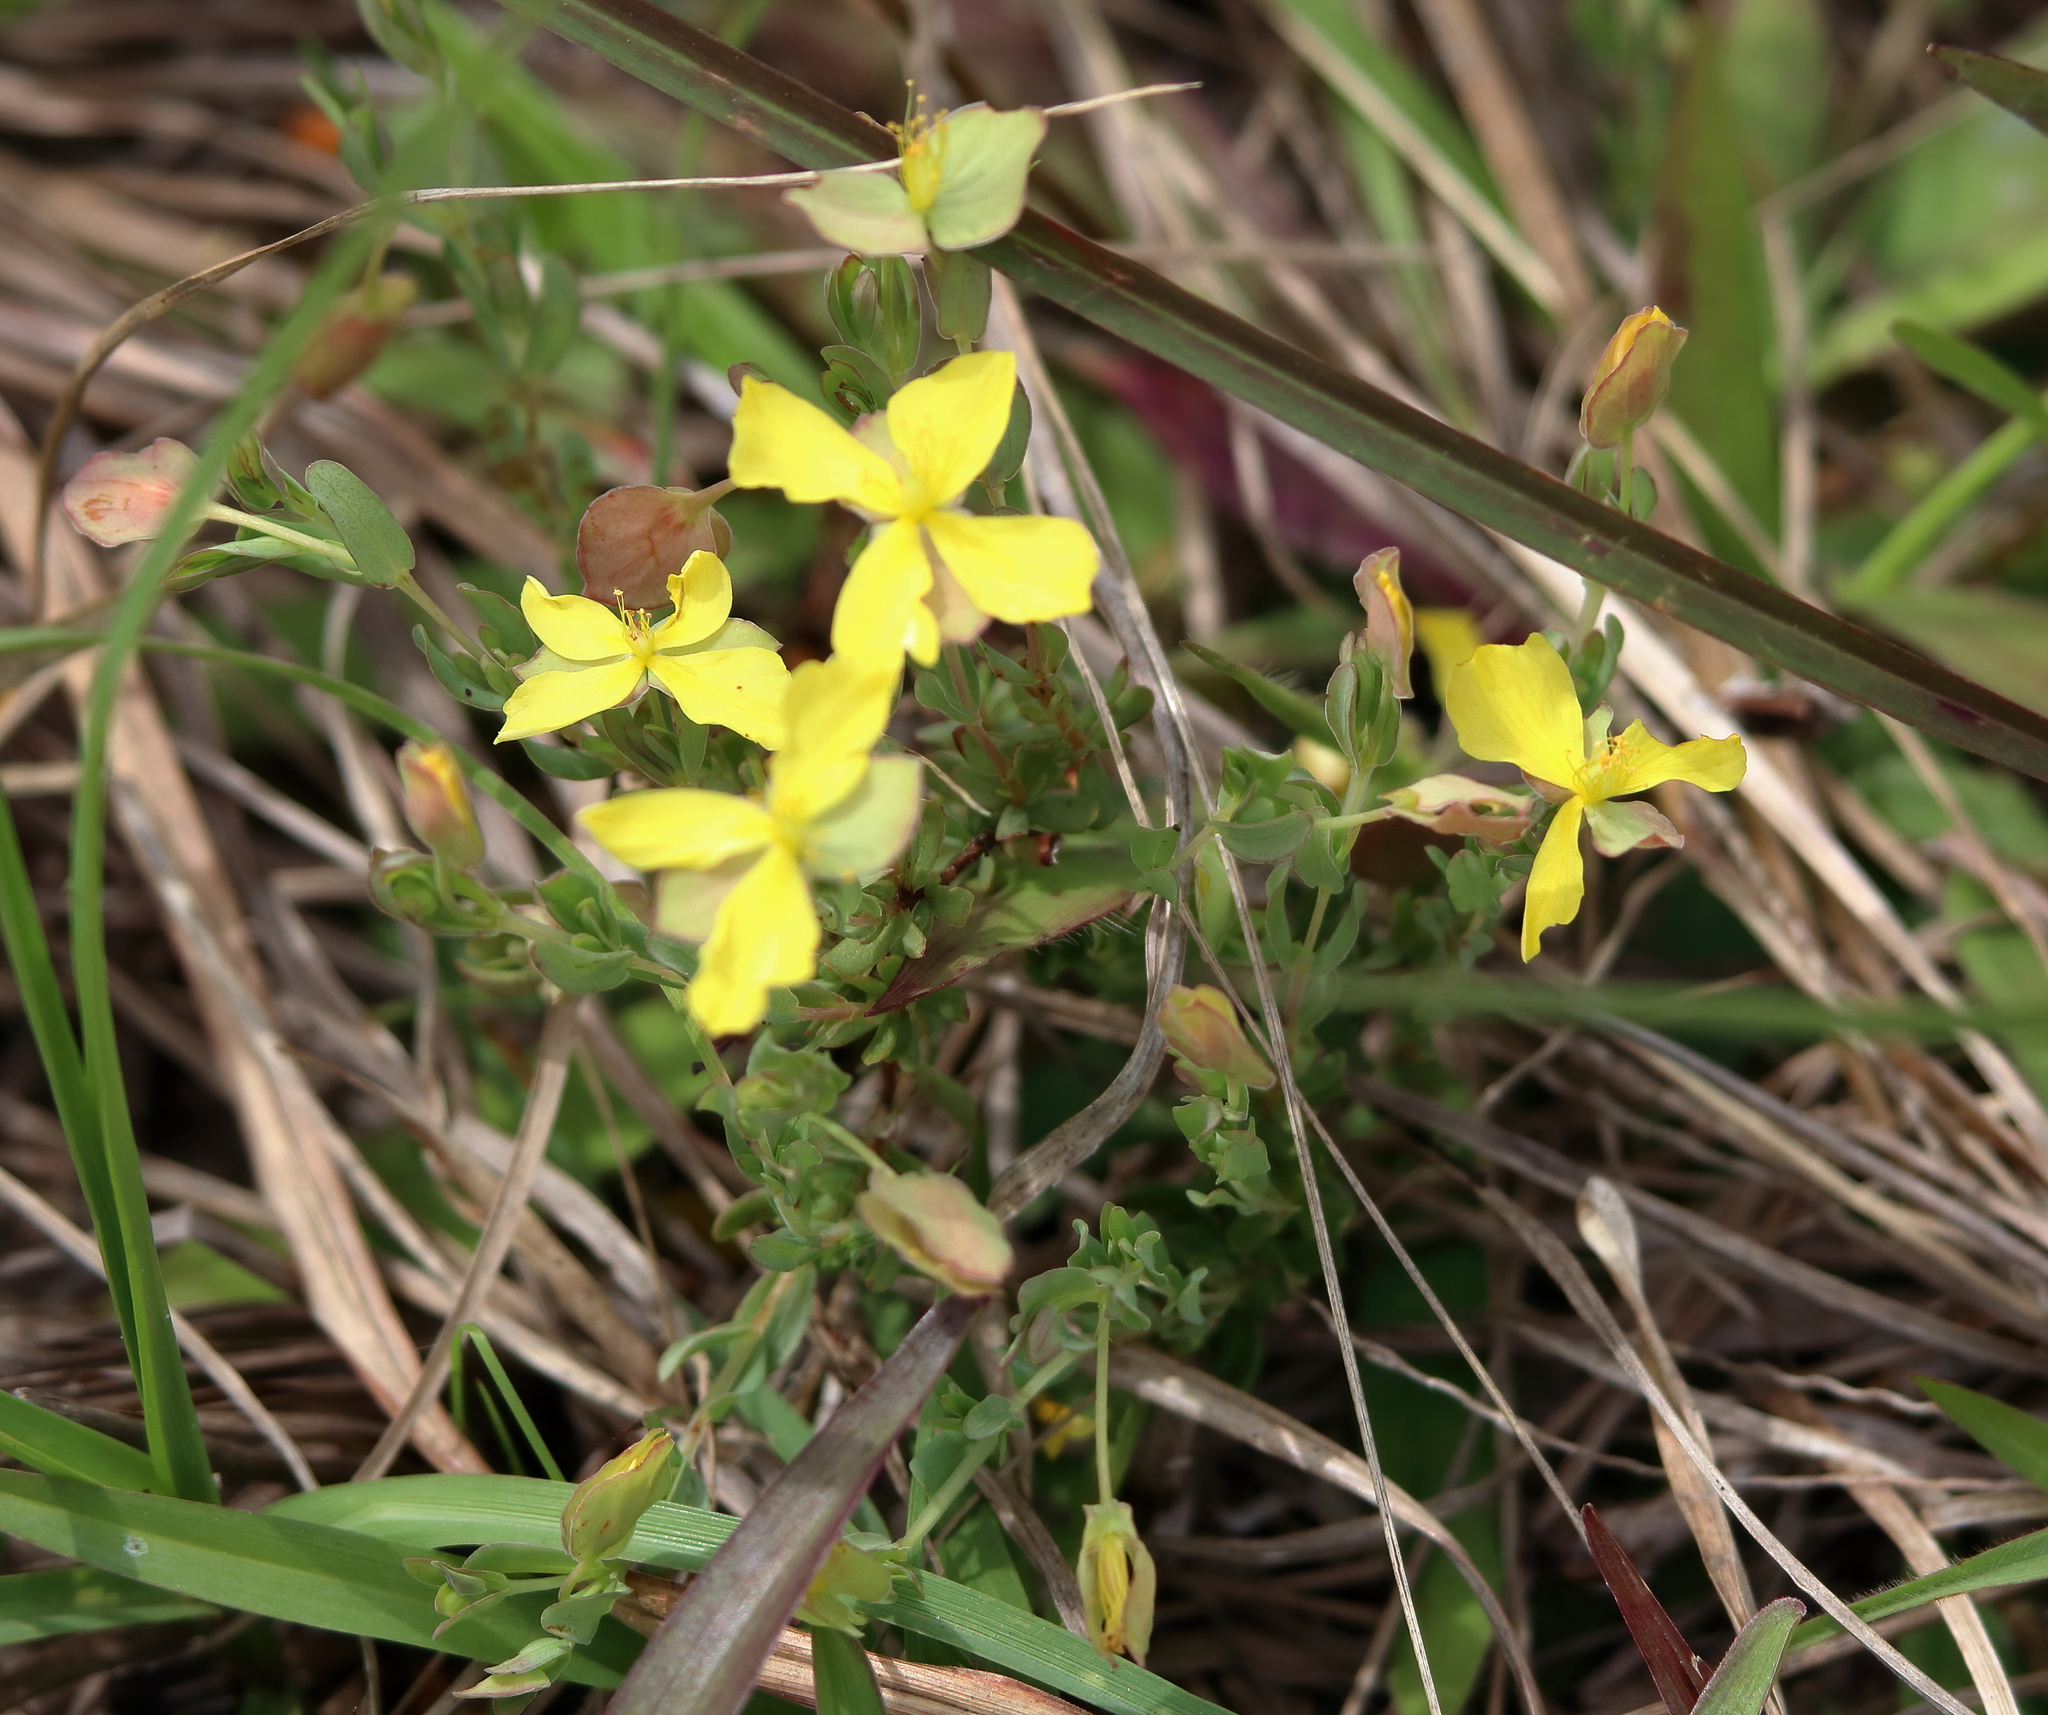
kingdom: Plantae
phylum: Tracheophyta
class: Magnoliopsida
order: Malpighiales
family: Hypericaceae
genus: Hypericum
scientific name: Hypericum hypericoides
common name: St. andrew's cross
